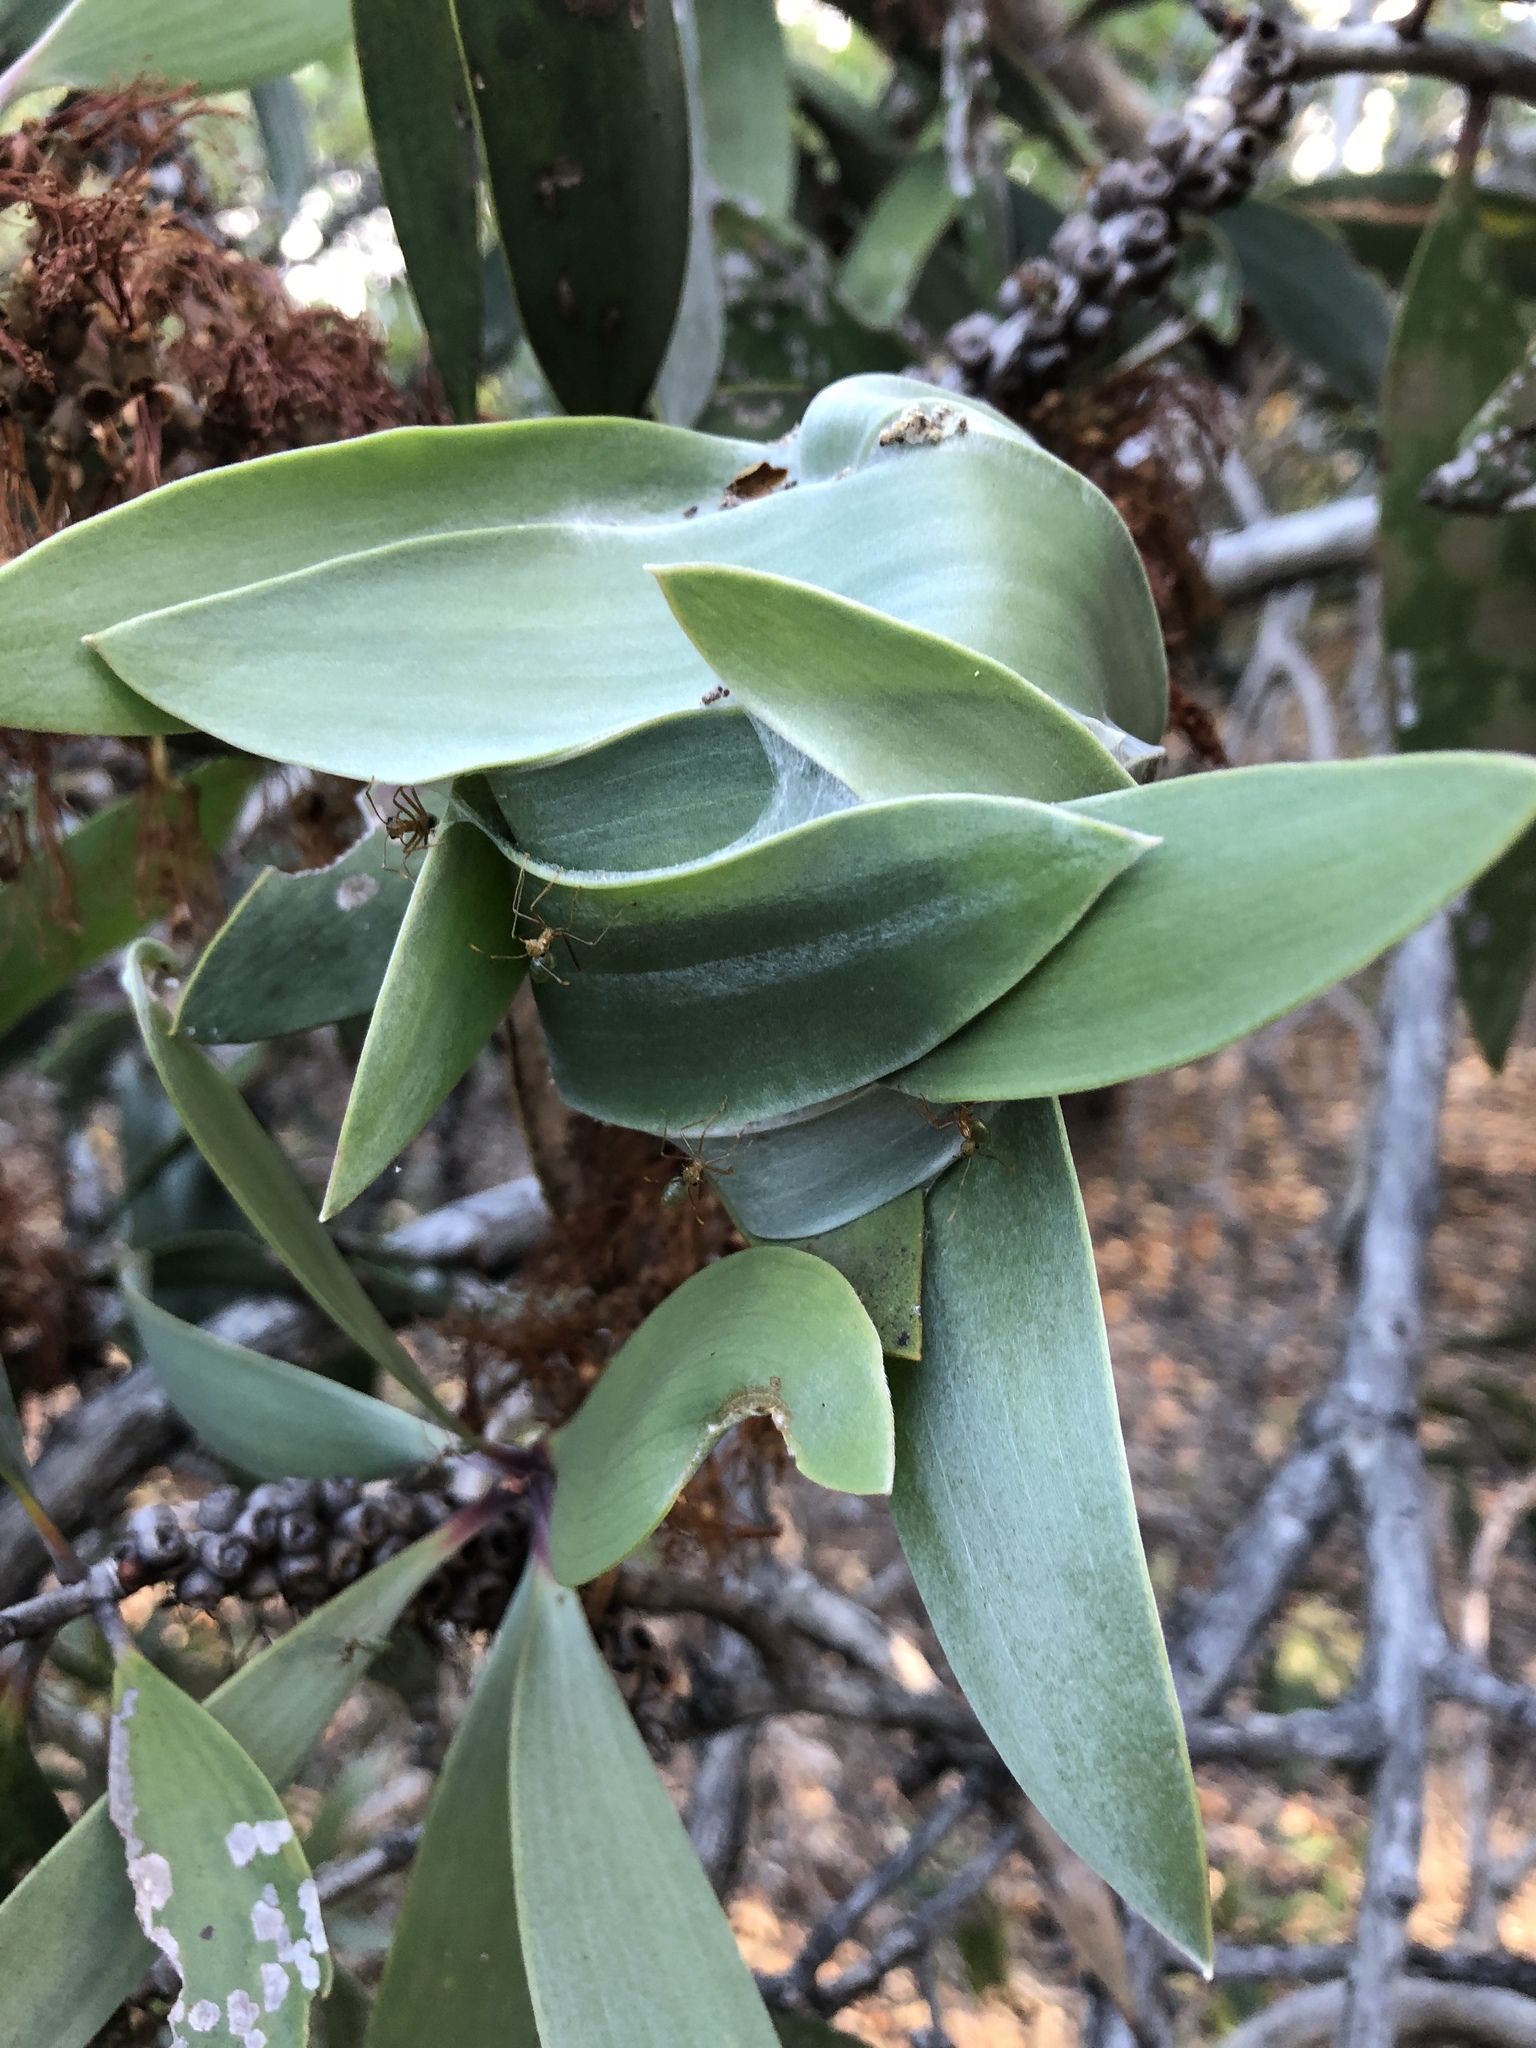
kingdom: Animalia
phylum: Arthropoda
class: Insecta
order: Hymenoptera
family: Formicidae
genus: Oecophylla
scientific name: Oecophylla smaragdina
